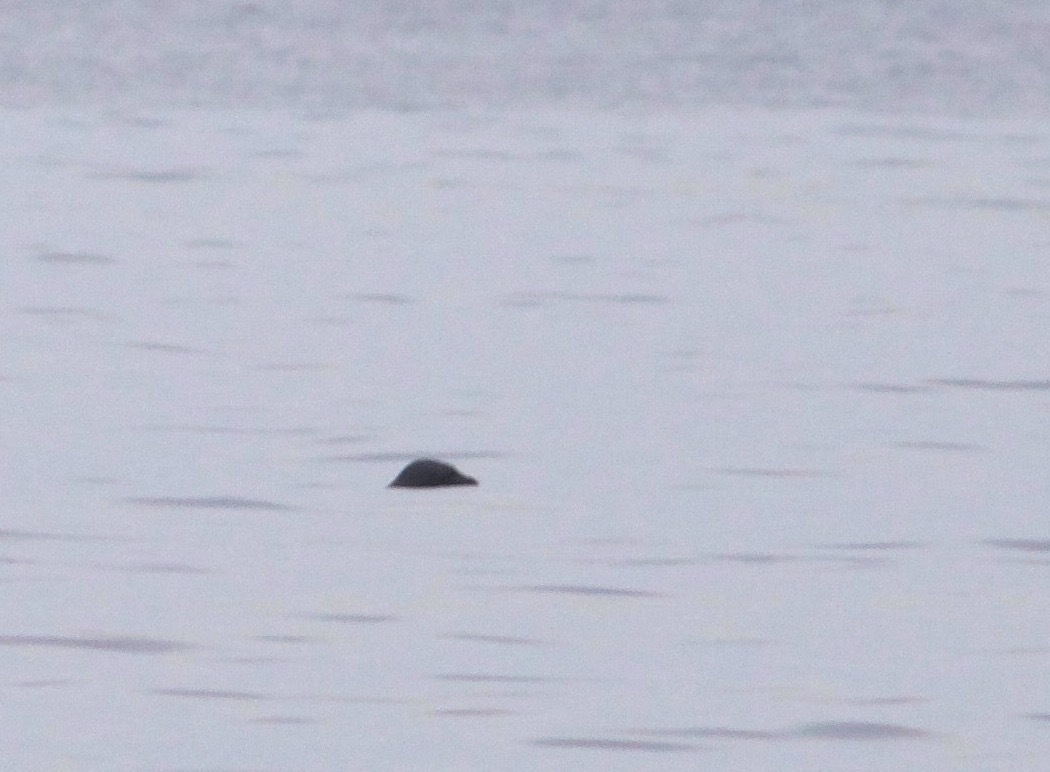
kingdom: Animalia
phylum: Chordata
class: Mammalia
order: Carnivora
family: Phocidae
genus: Pusa
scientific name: Pusa hispida
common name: Ringed seal
